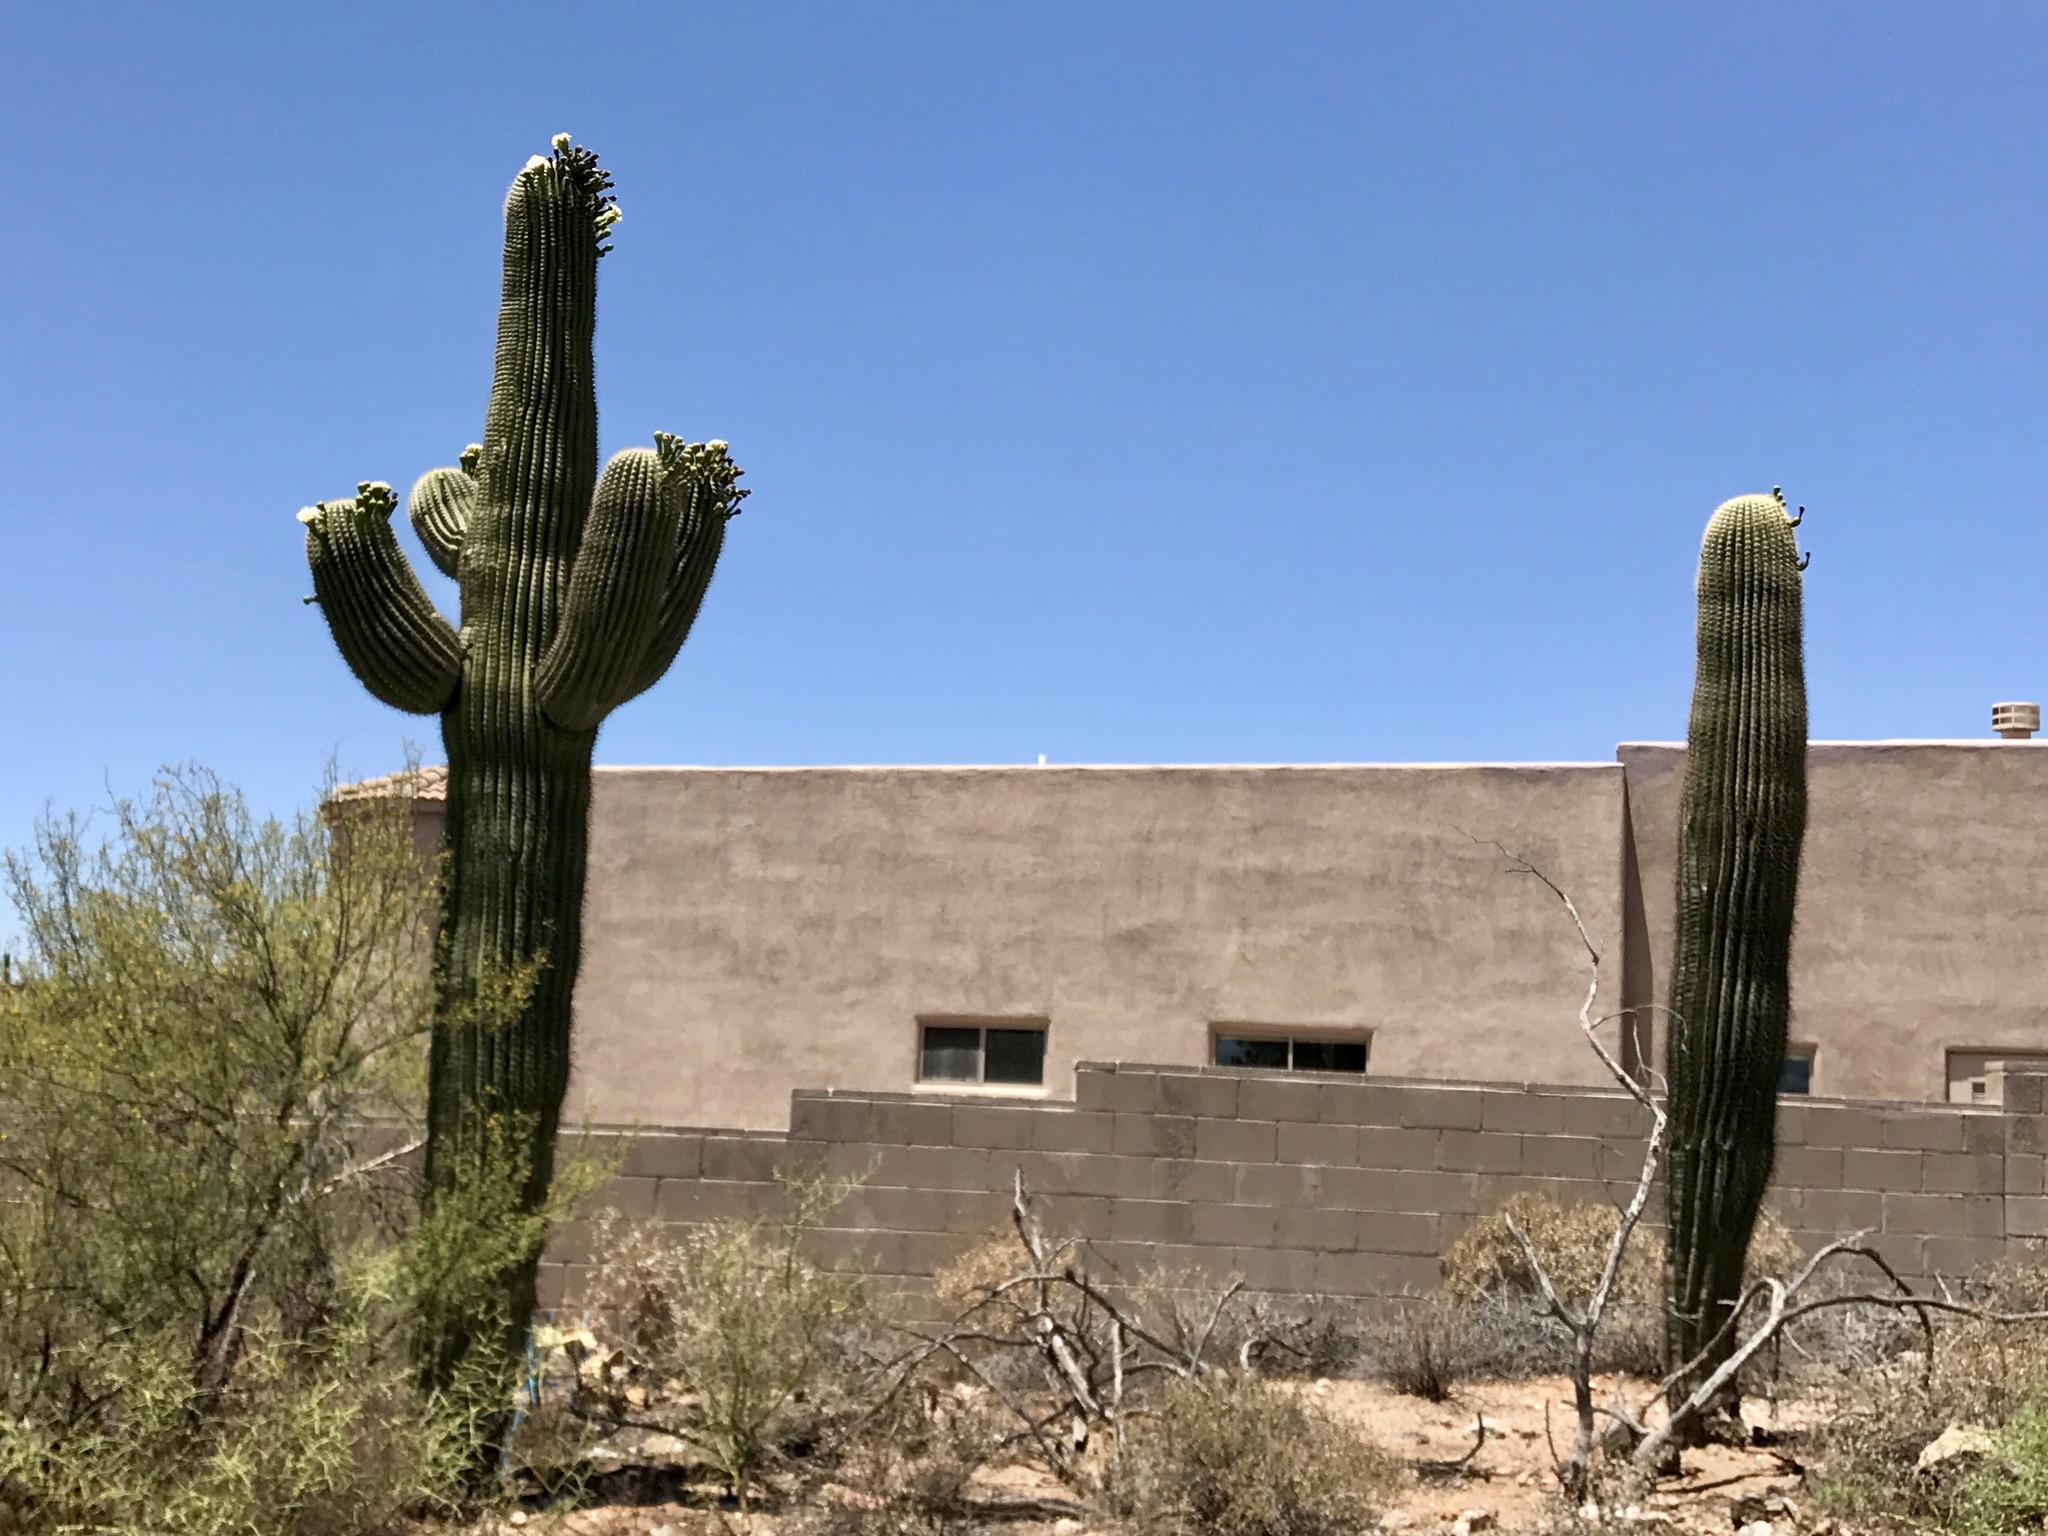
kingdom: Plantae
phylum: Tracheophyta
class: Magnoliopsida
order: Caryophyllales
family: Cactaceae
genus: Carnegiea
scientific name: Carnegiea gigantea
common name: Saguaro
